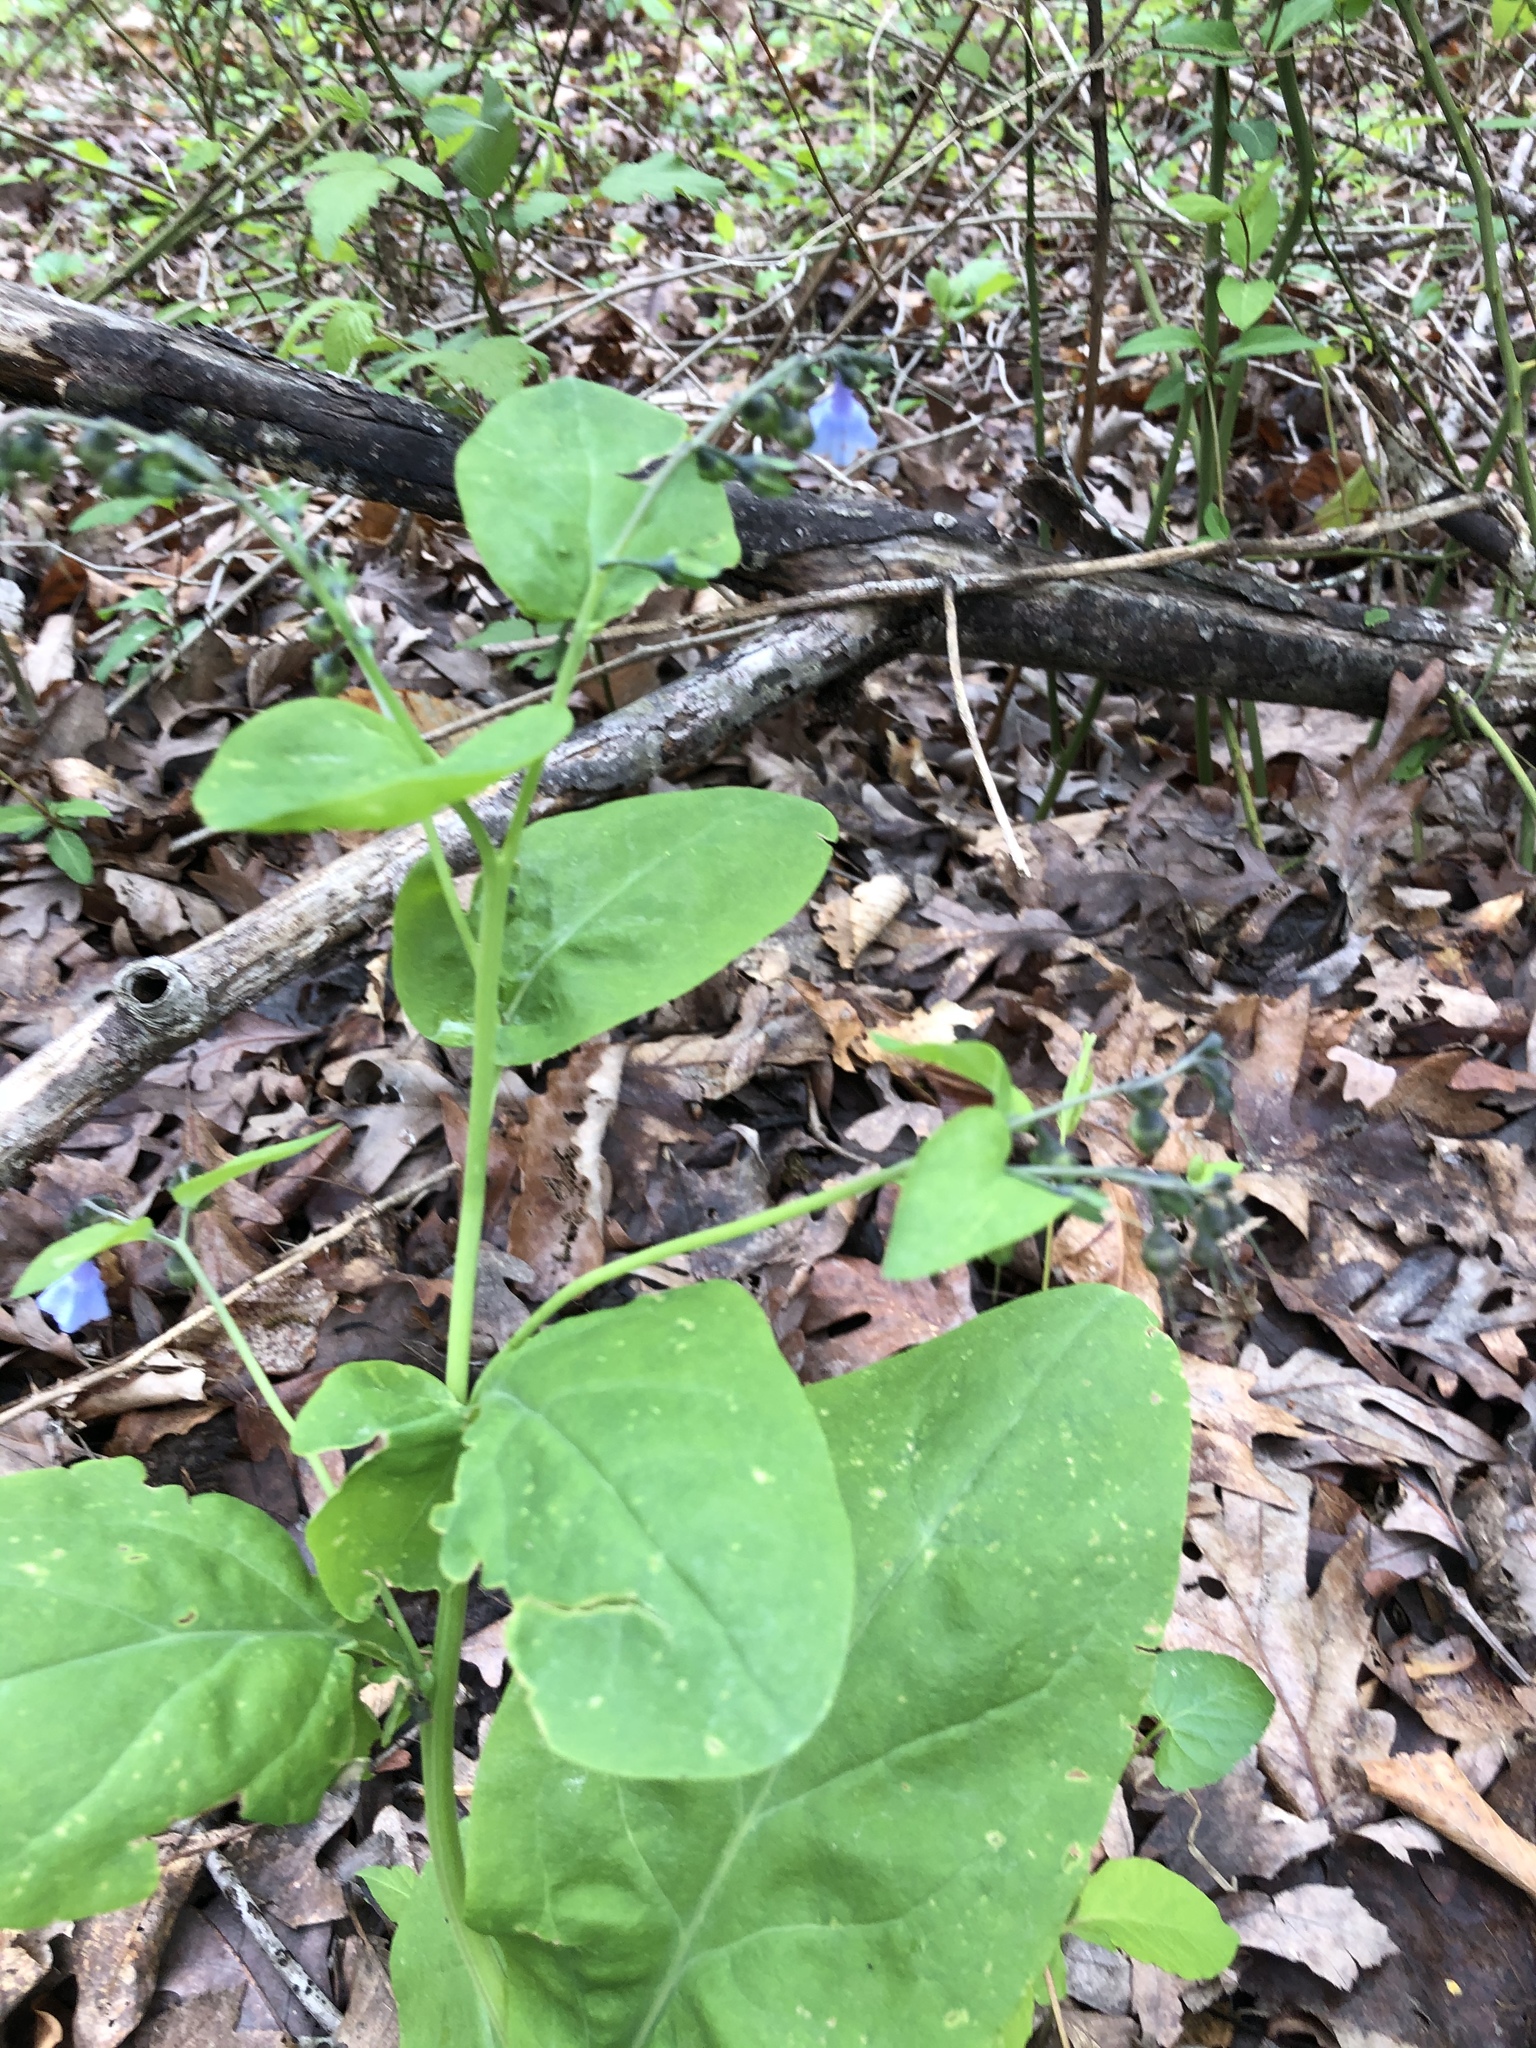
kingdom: Plantae
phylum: Tracheophyta
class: Magnoliopsida
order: Boraginales
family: Boraginaceae
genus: Mertensia
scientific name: Mertensia virginica
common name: Virginia bluebells
